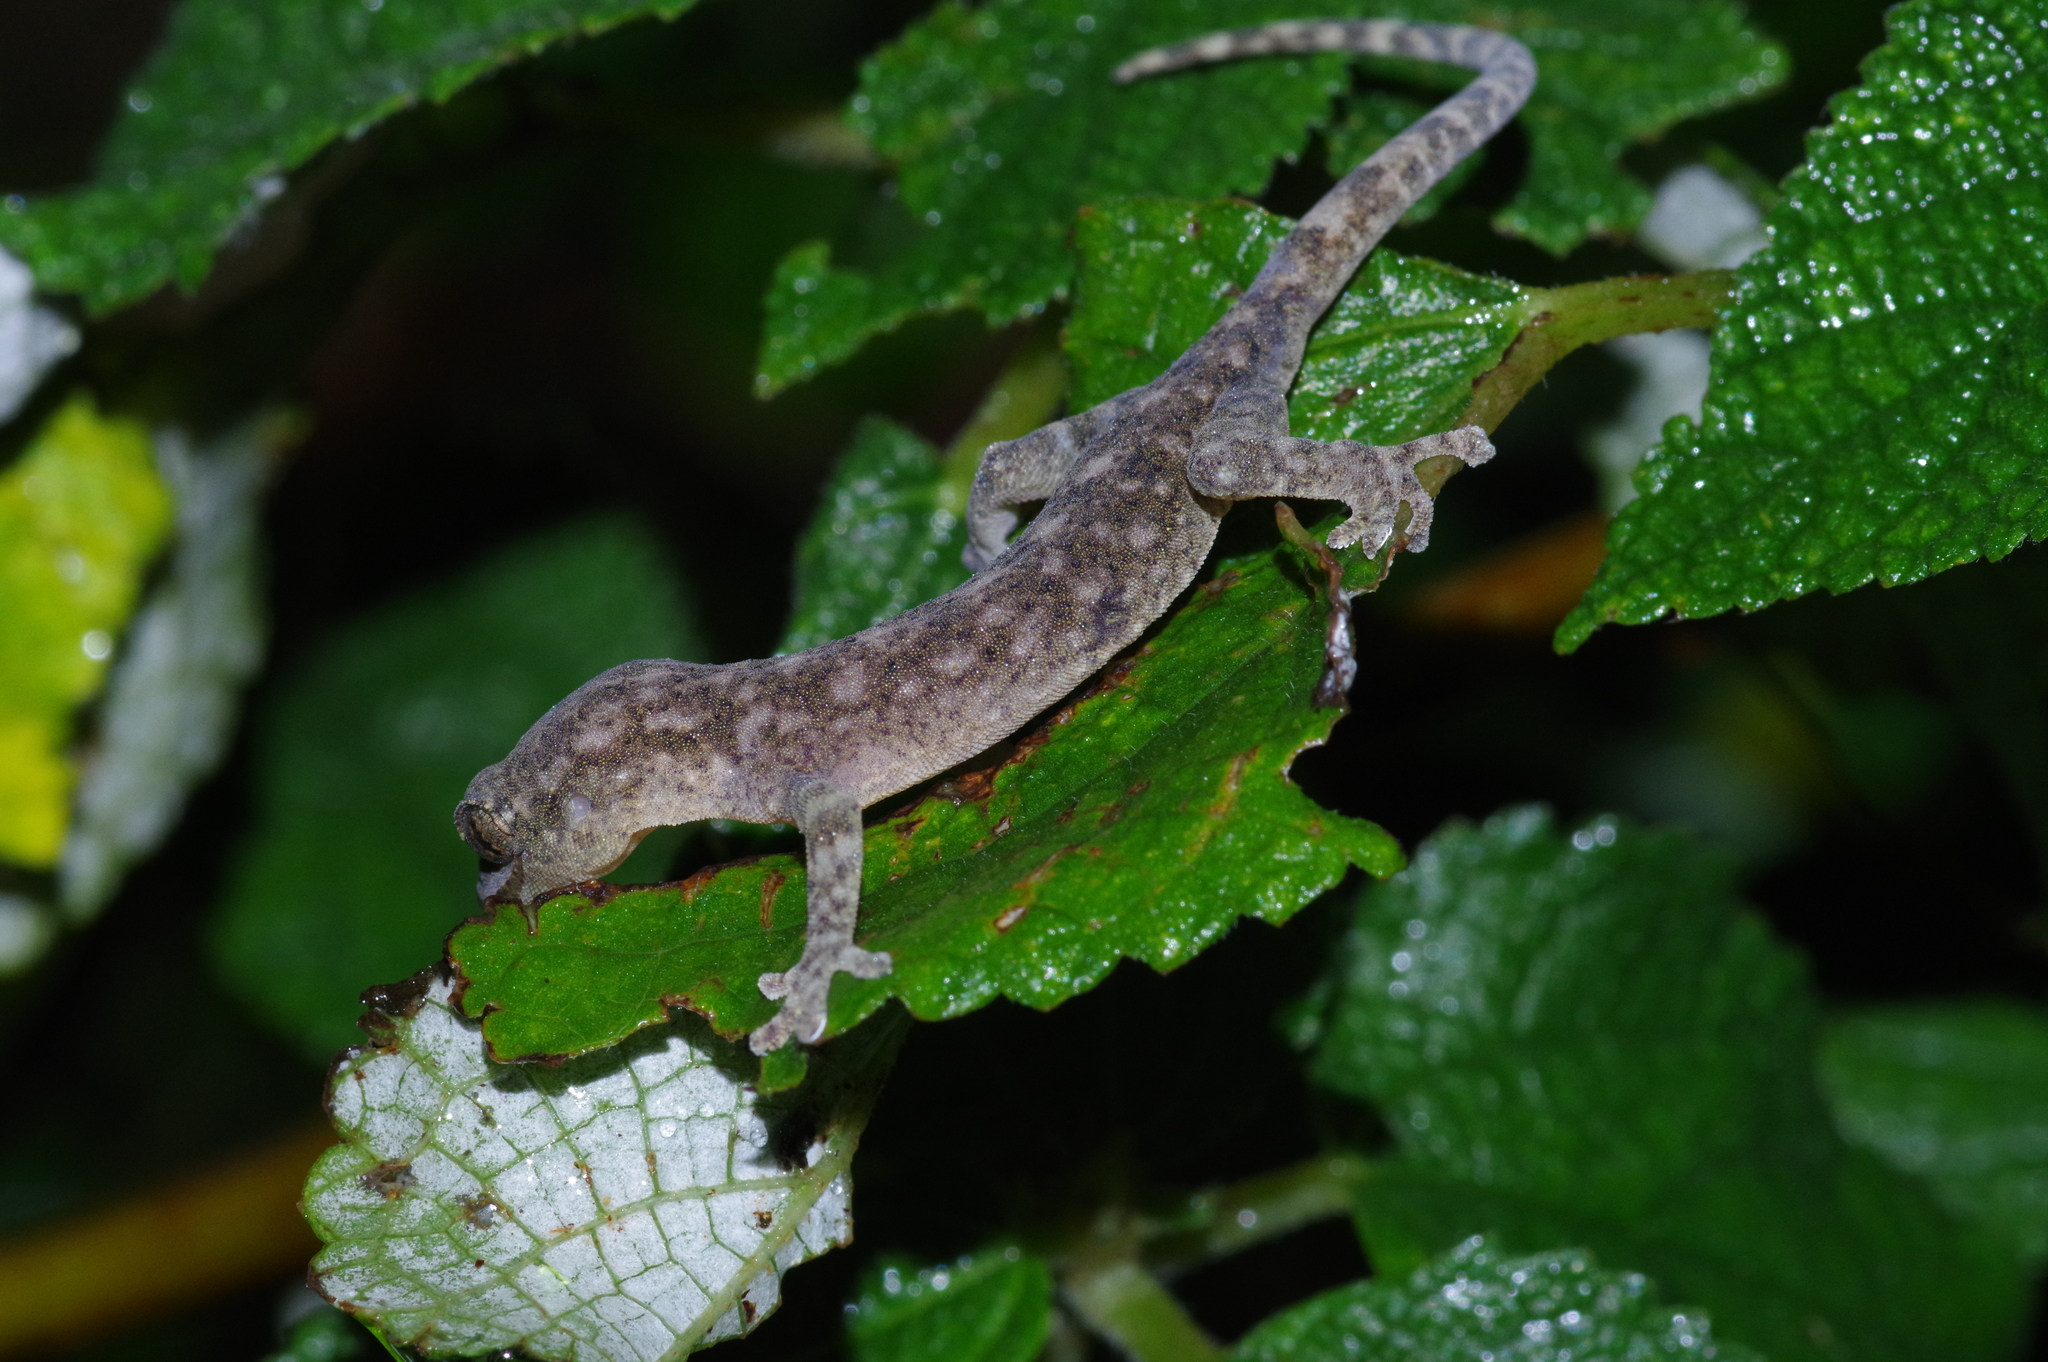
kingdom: Animalia
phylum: Chordata
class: Squamata
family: Gekkonidae
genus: Gekko
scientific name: Gekko hokouensis
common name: Kwangsi gecko
